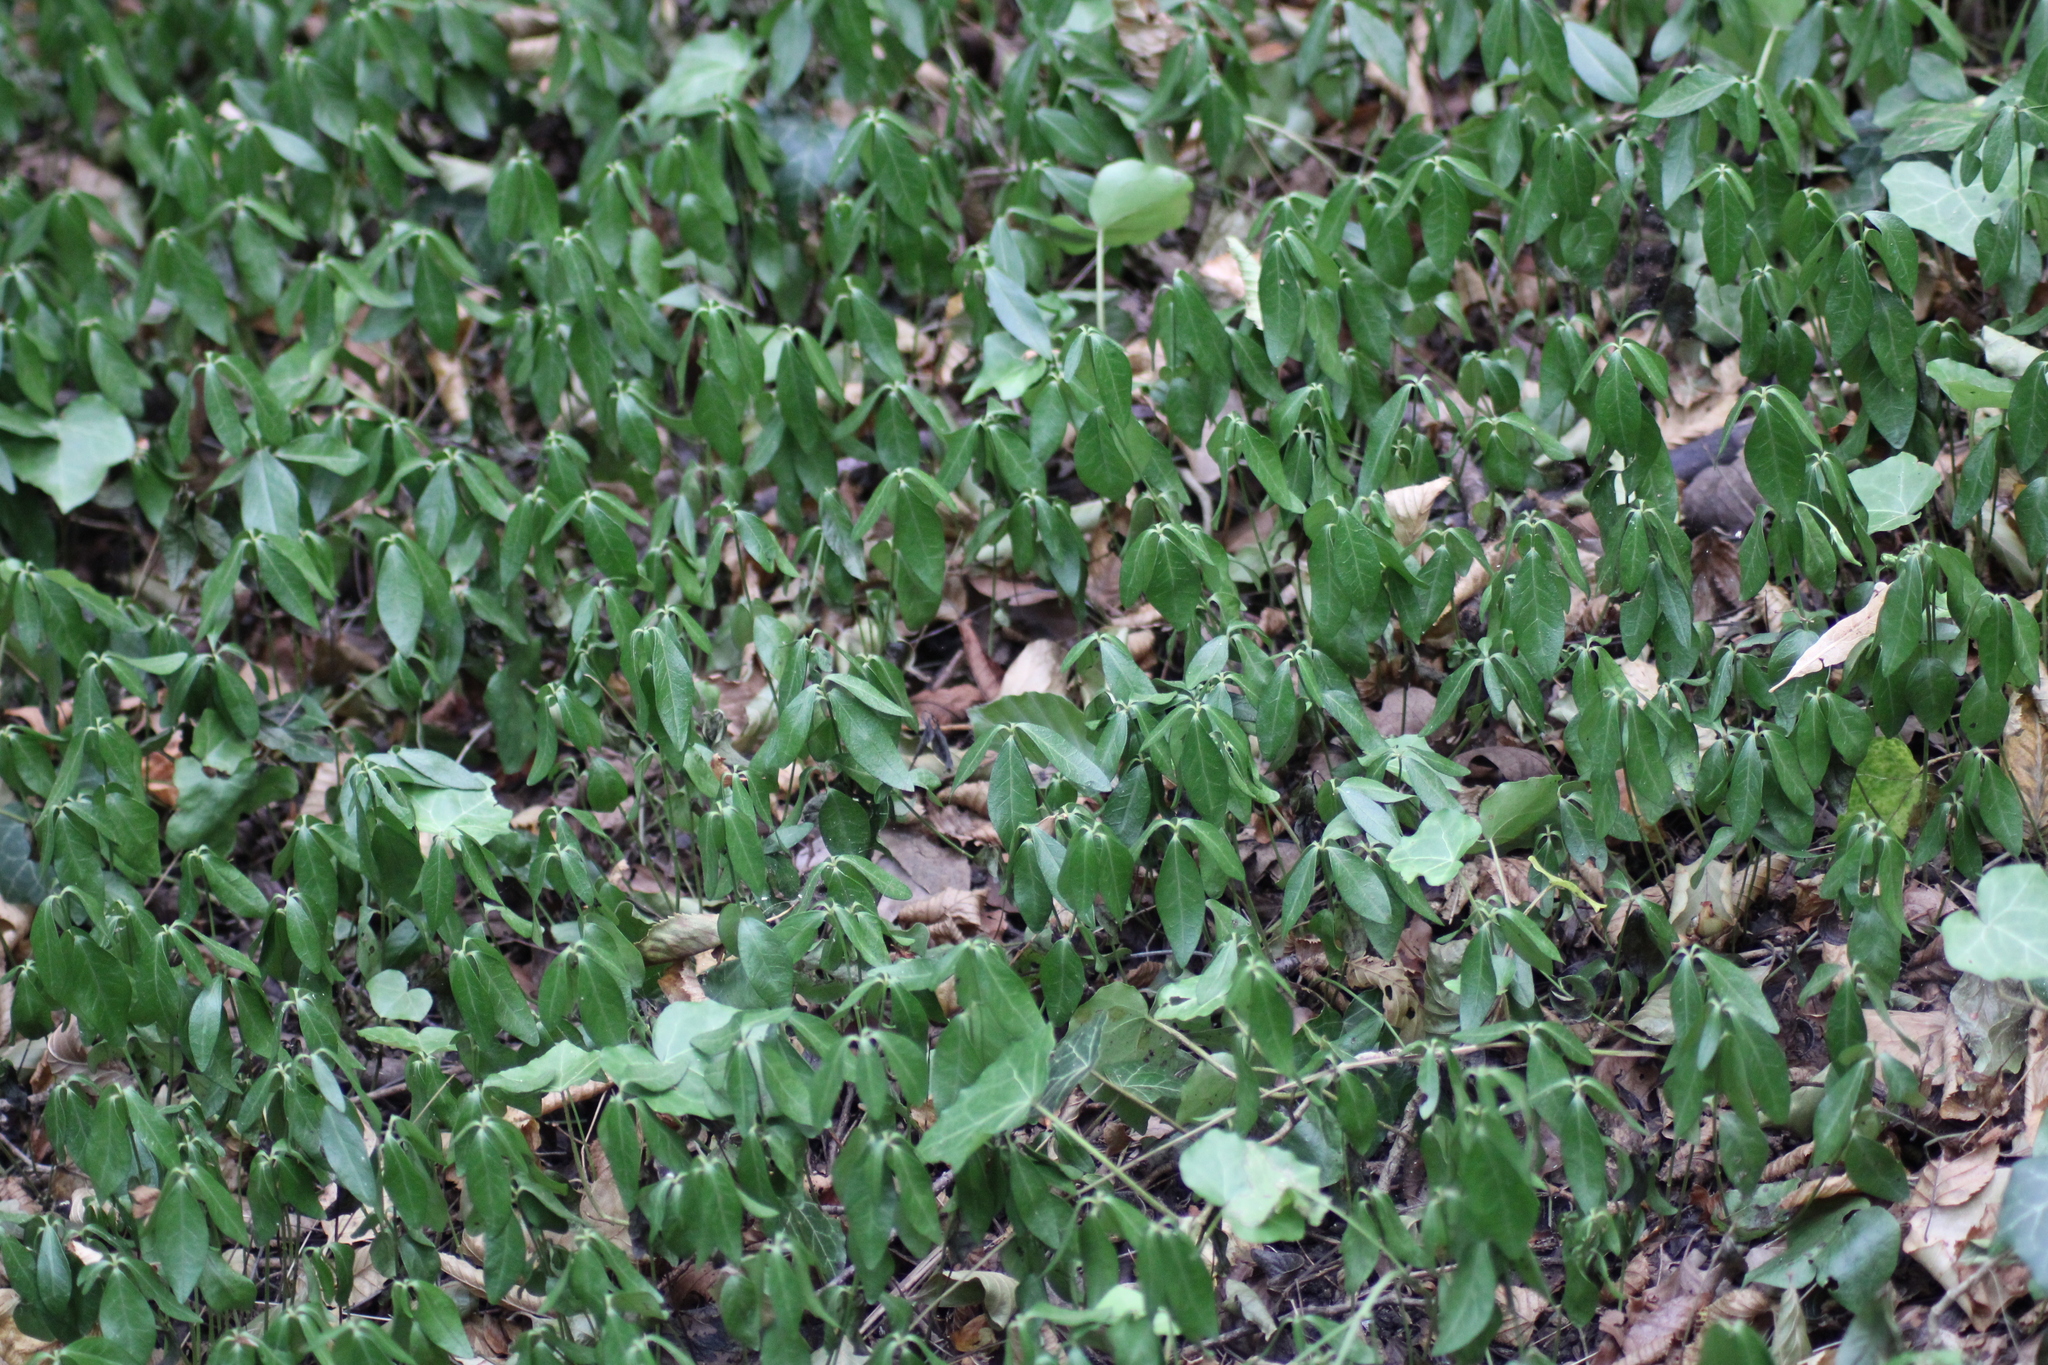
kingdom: Plantae
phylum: Tracheophyta
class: Magnoliopsida
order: Gentianales
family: Apocynaceae
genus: Vinca
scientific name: Vinca minor
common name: Lesser periwinkle
